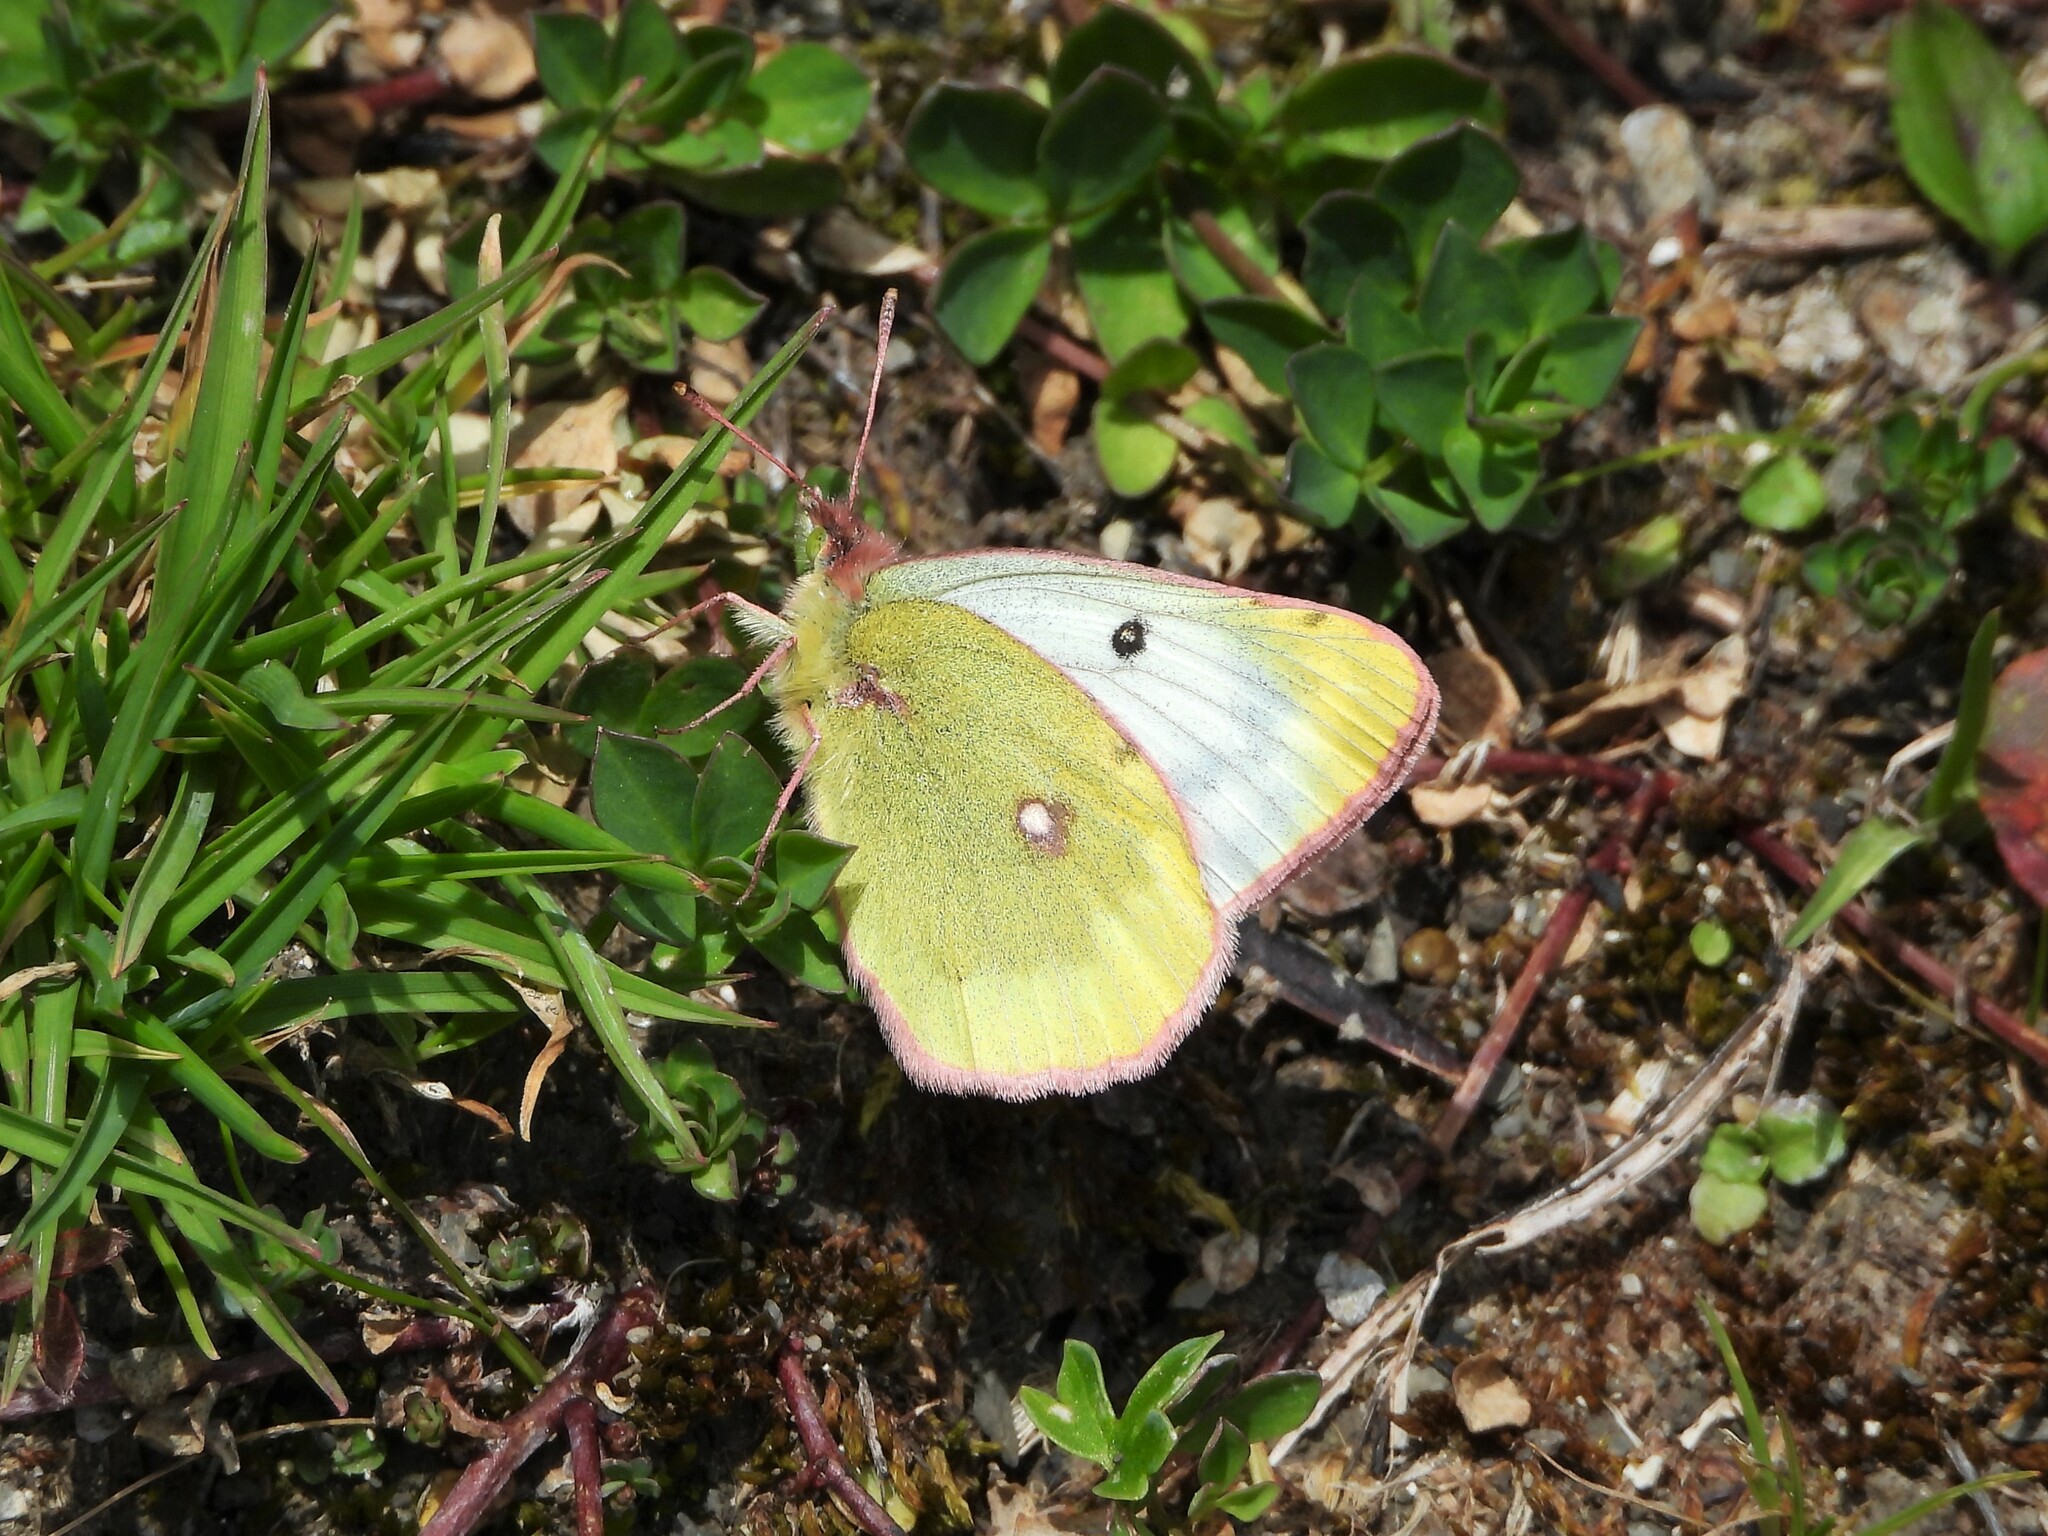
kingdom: Animalia
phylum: Arthropoda
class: Insecta
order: Lepidoptera
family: Pieridae
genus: Colias
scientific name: Colias phicomone
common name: Mountain clouded yellow
